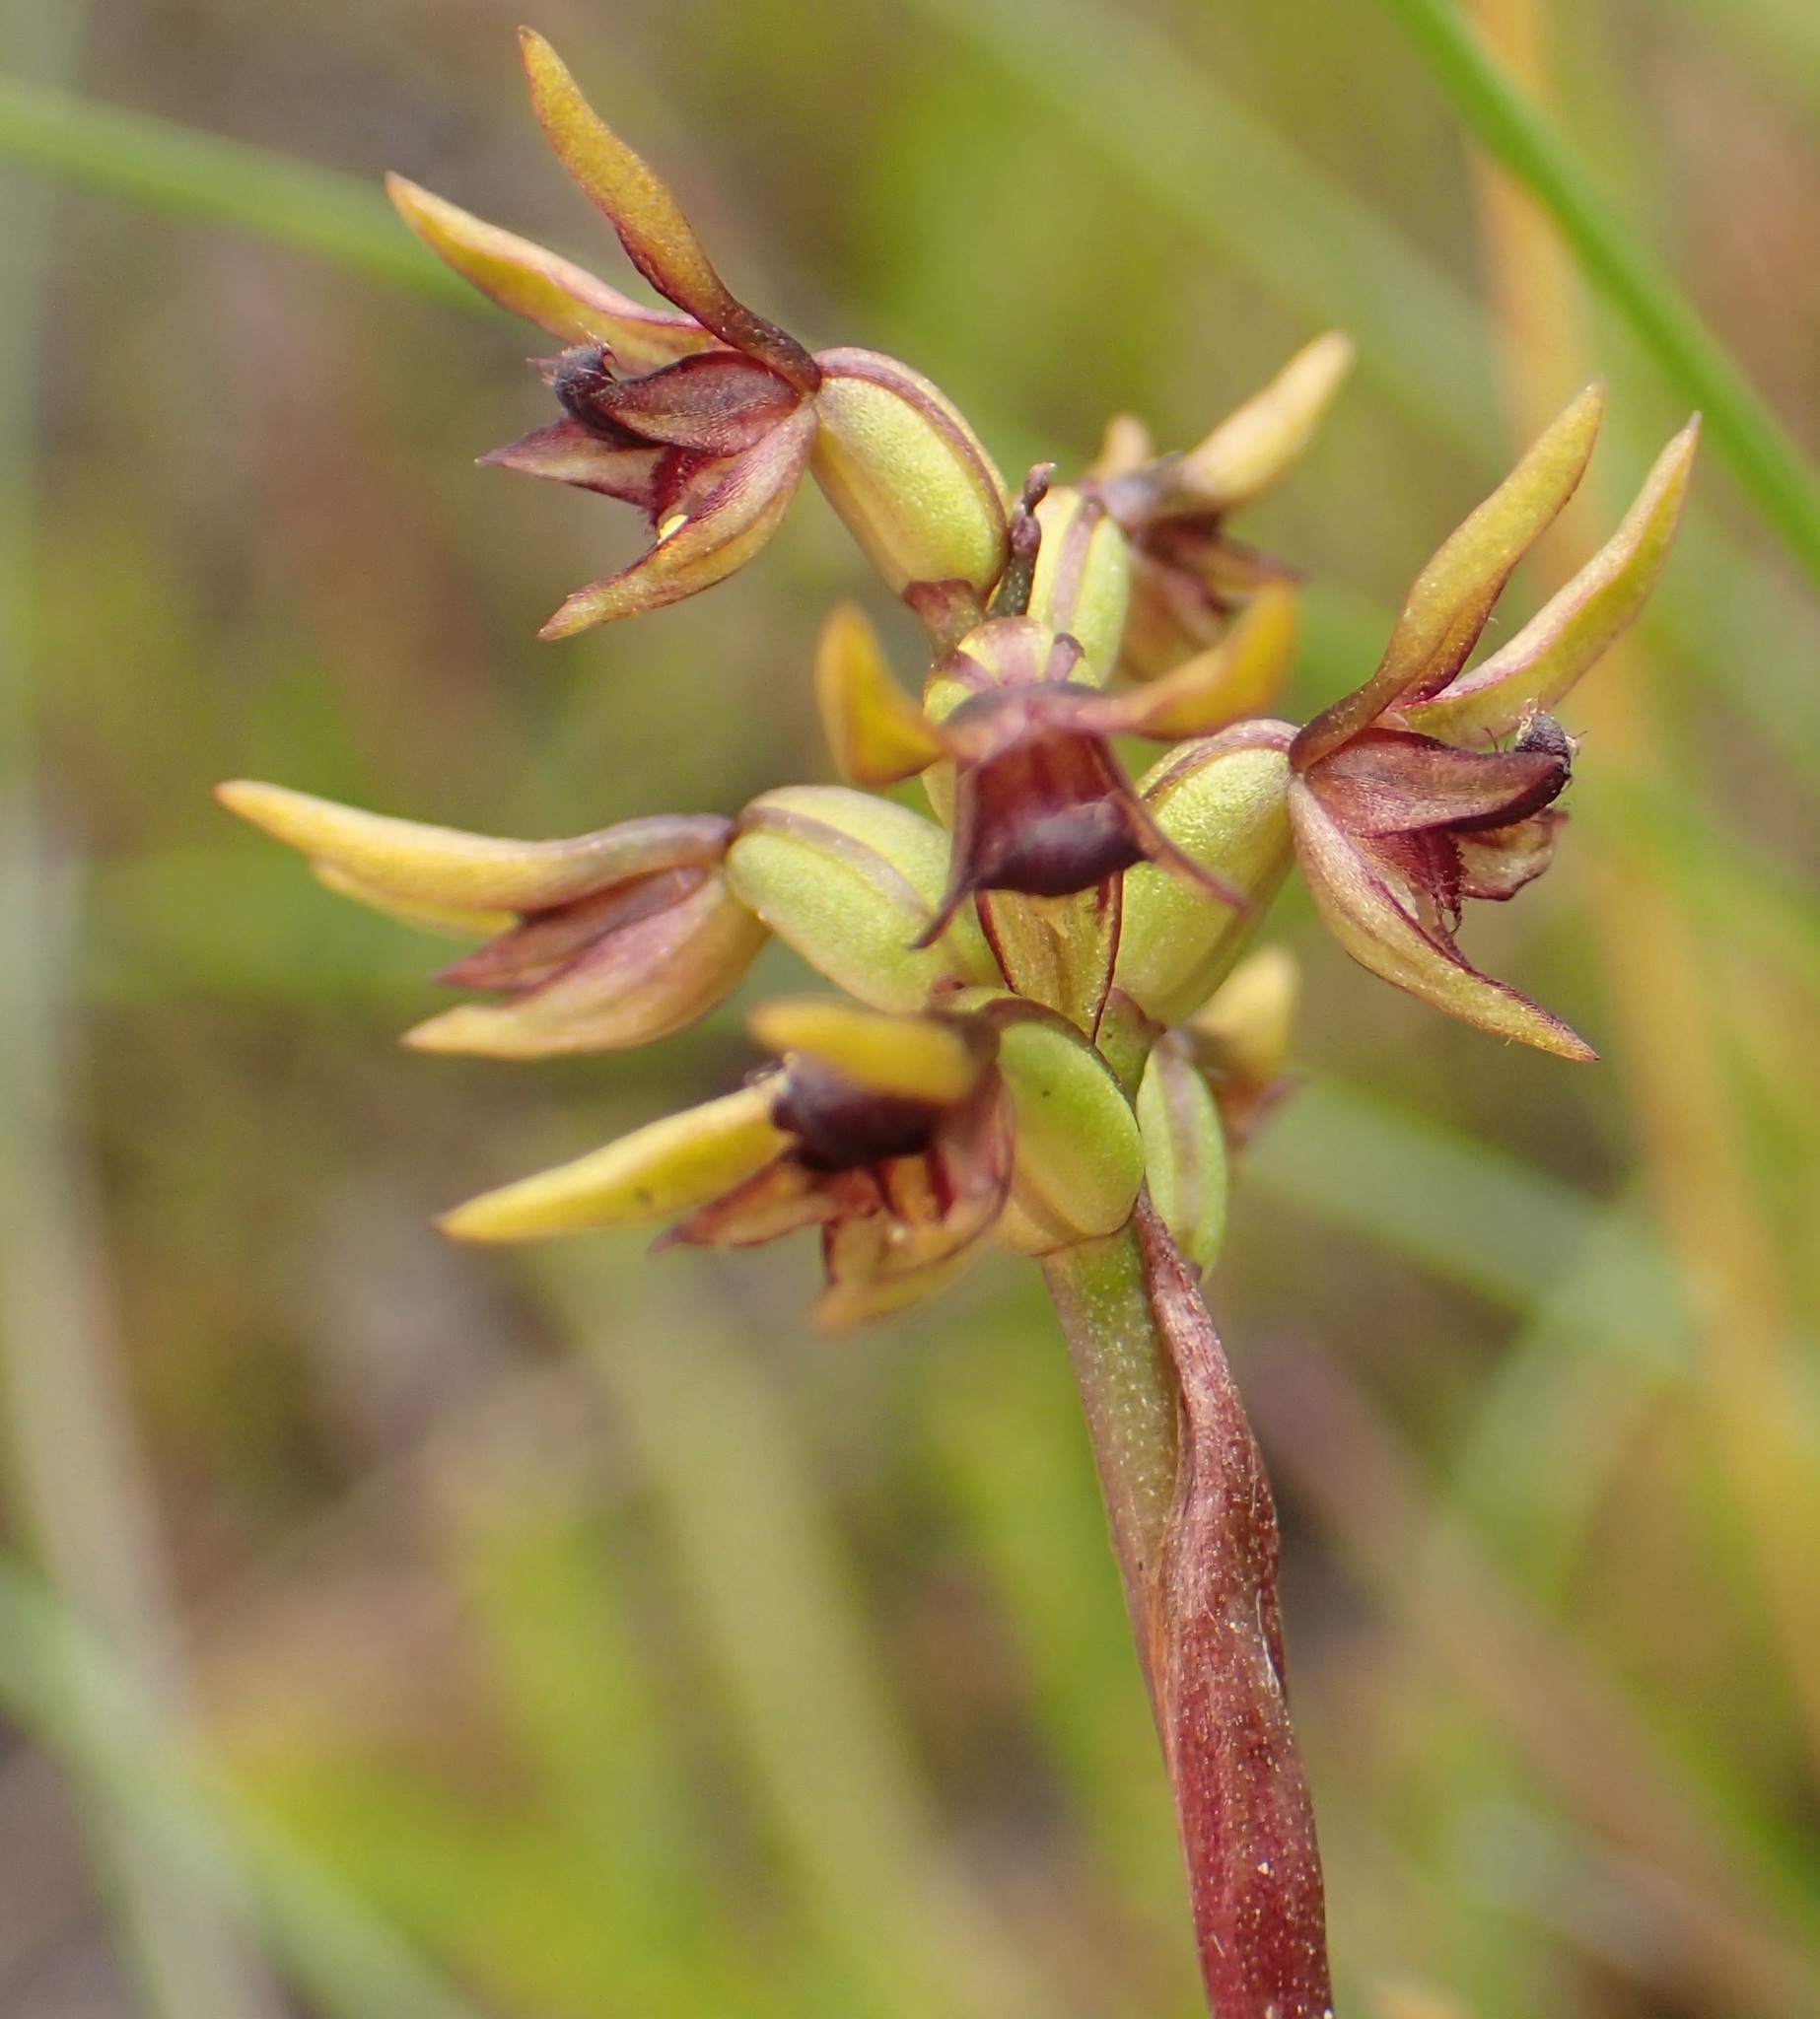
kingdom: Plantae
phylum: Tracheophyta
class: Liliopsida
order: Asparagales
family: Orchidaceae
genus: Genoplesium
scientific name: Genoplesium archeri
